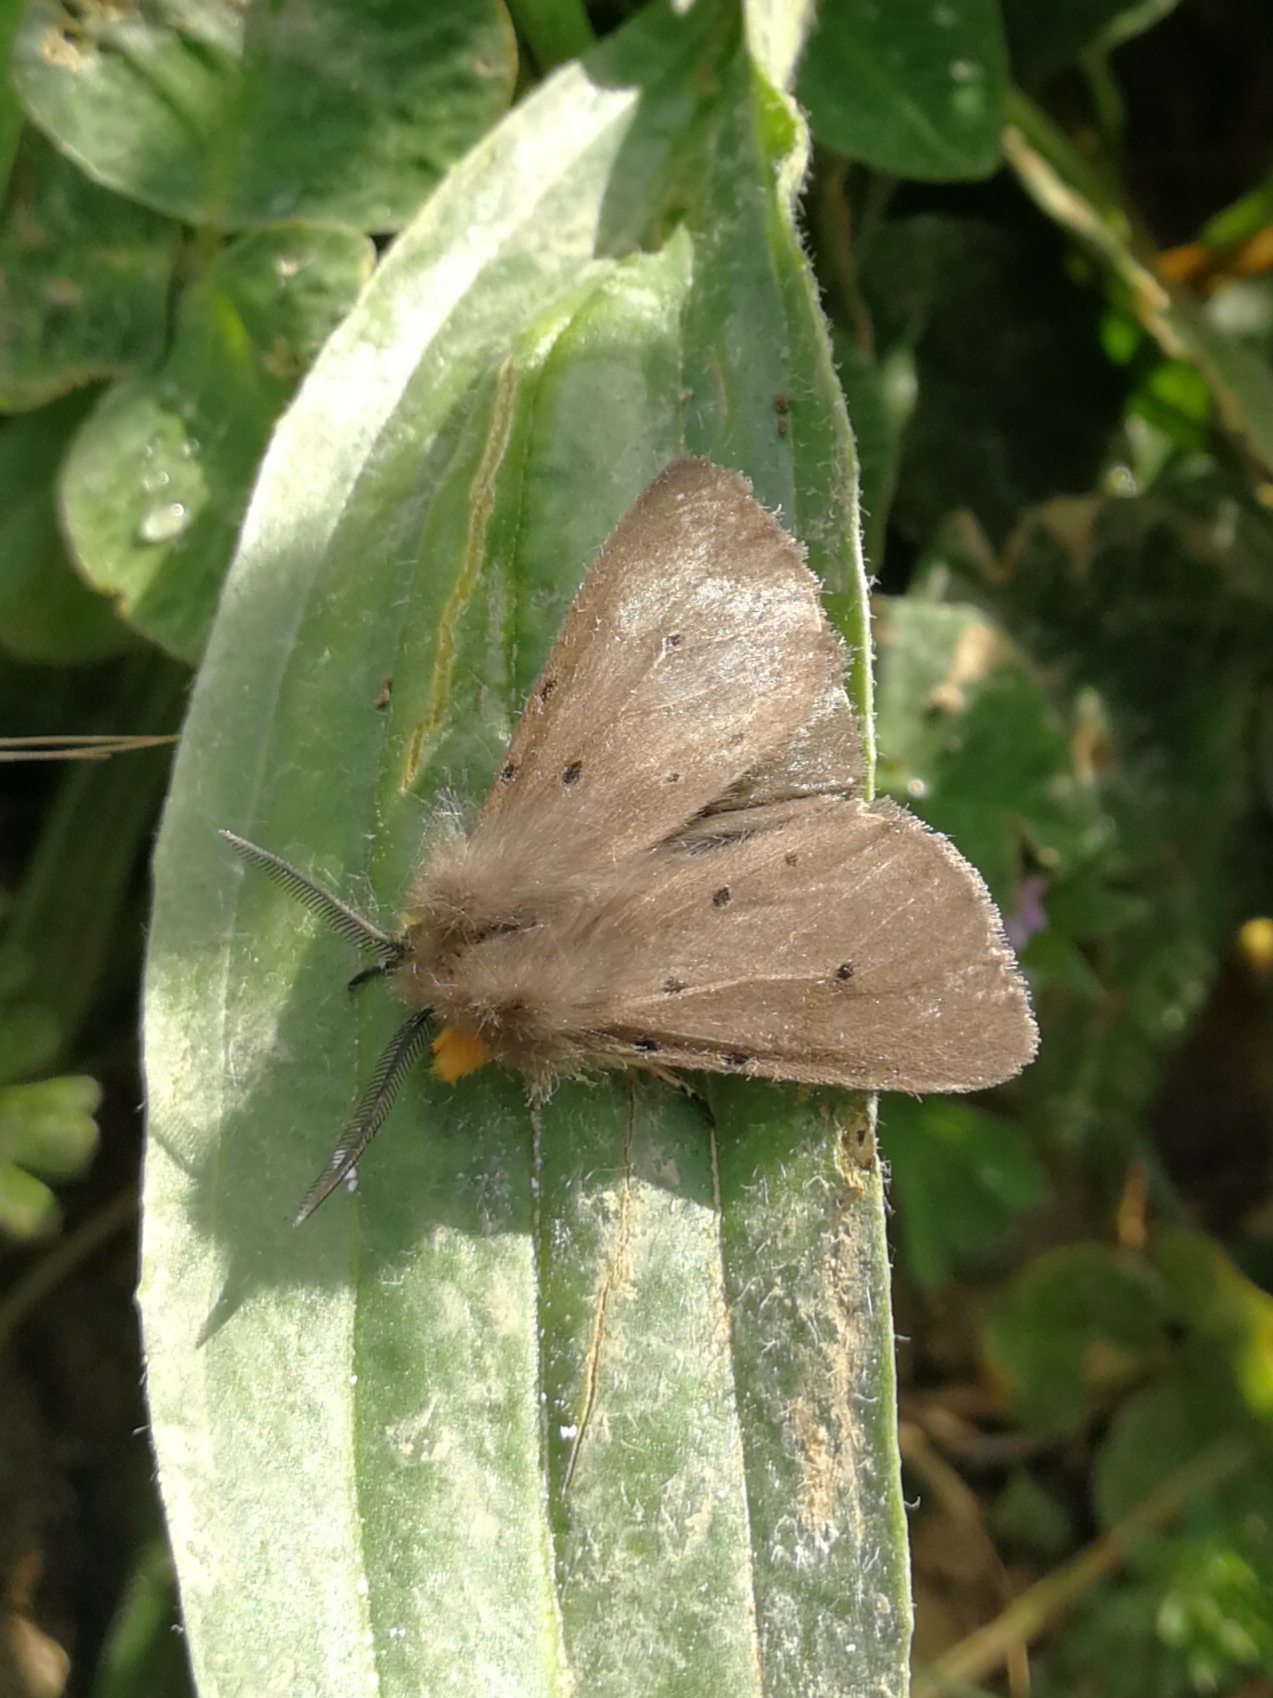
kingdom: Animalia
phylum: Arthropoda
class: Insecta
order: Lepidoptera
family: Erebidae
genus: Diaphora
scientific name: Diaphora mendica
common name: Muslin moth
